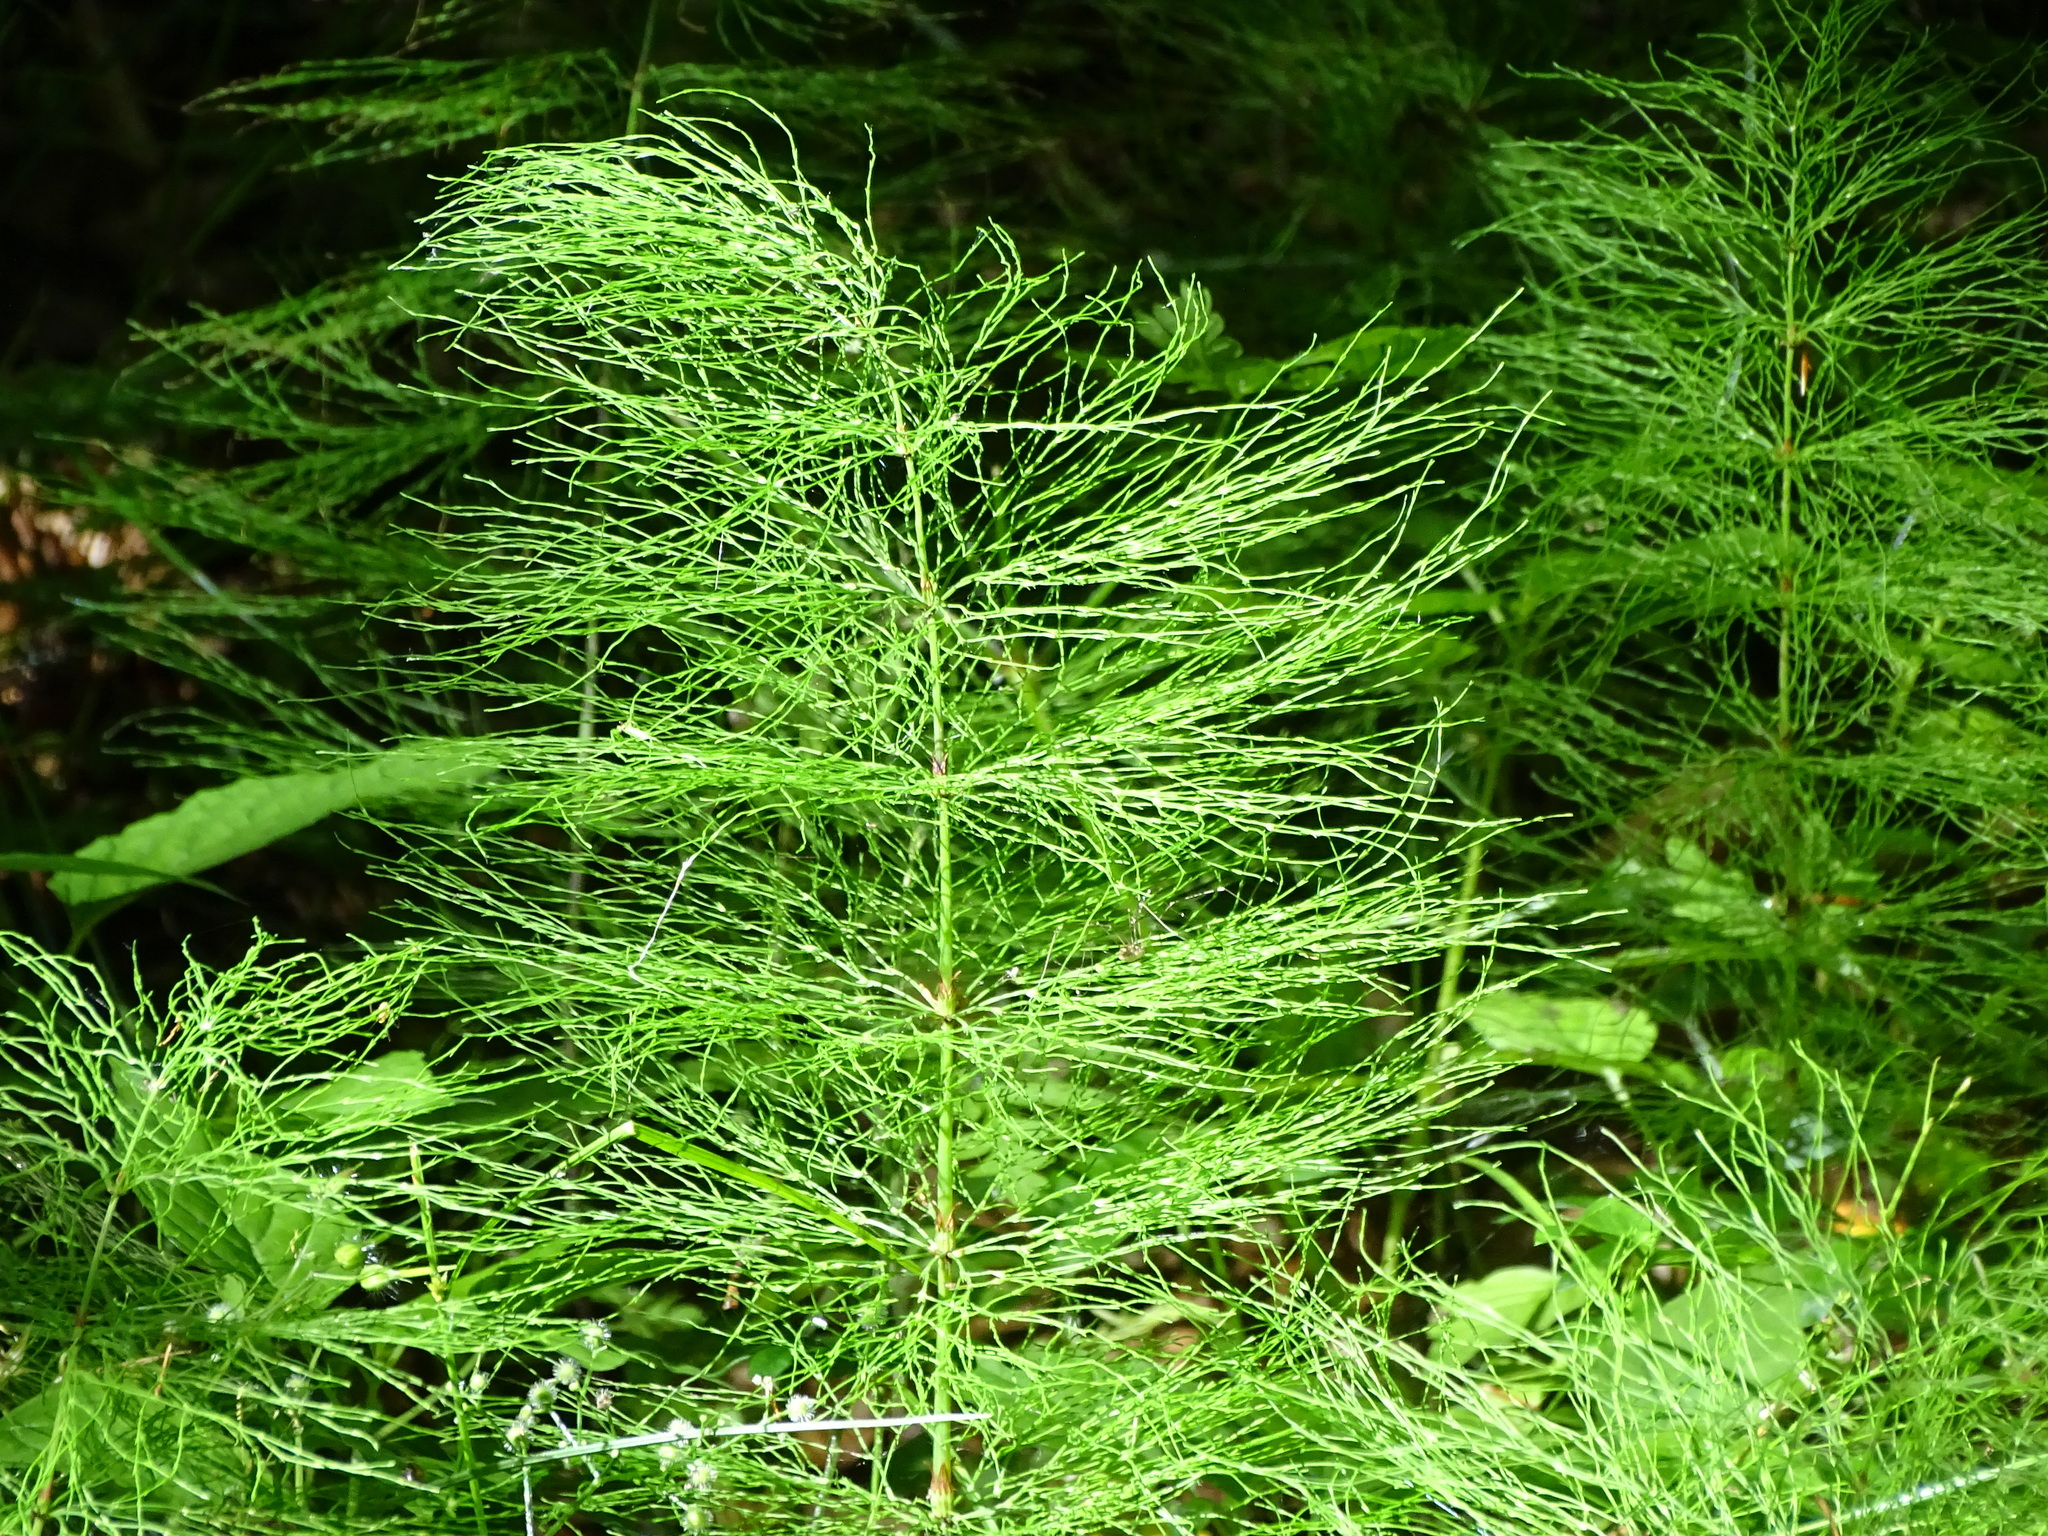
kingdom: Plantae
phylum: Tracheophyta
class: Polypodiopsida
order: Equisetales
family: Equisetaceae
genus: Equisetum
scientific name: Equisetum sylvaticum
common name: Wood horsetail
